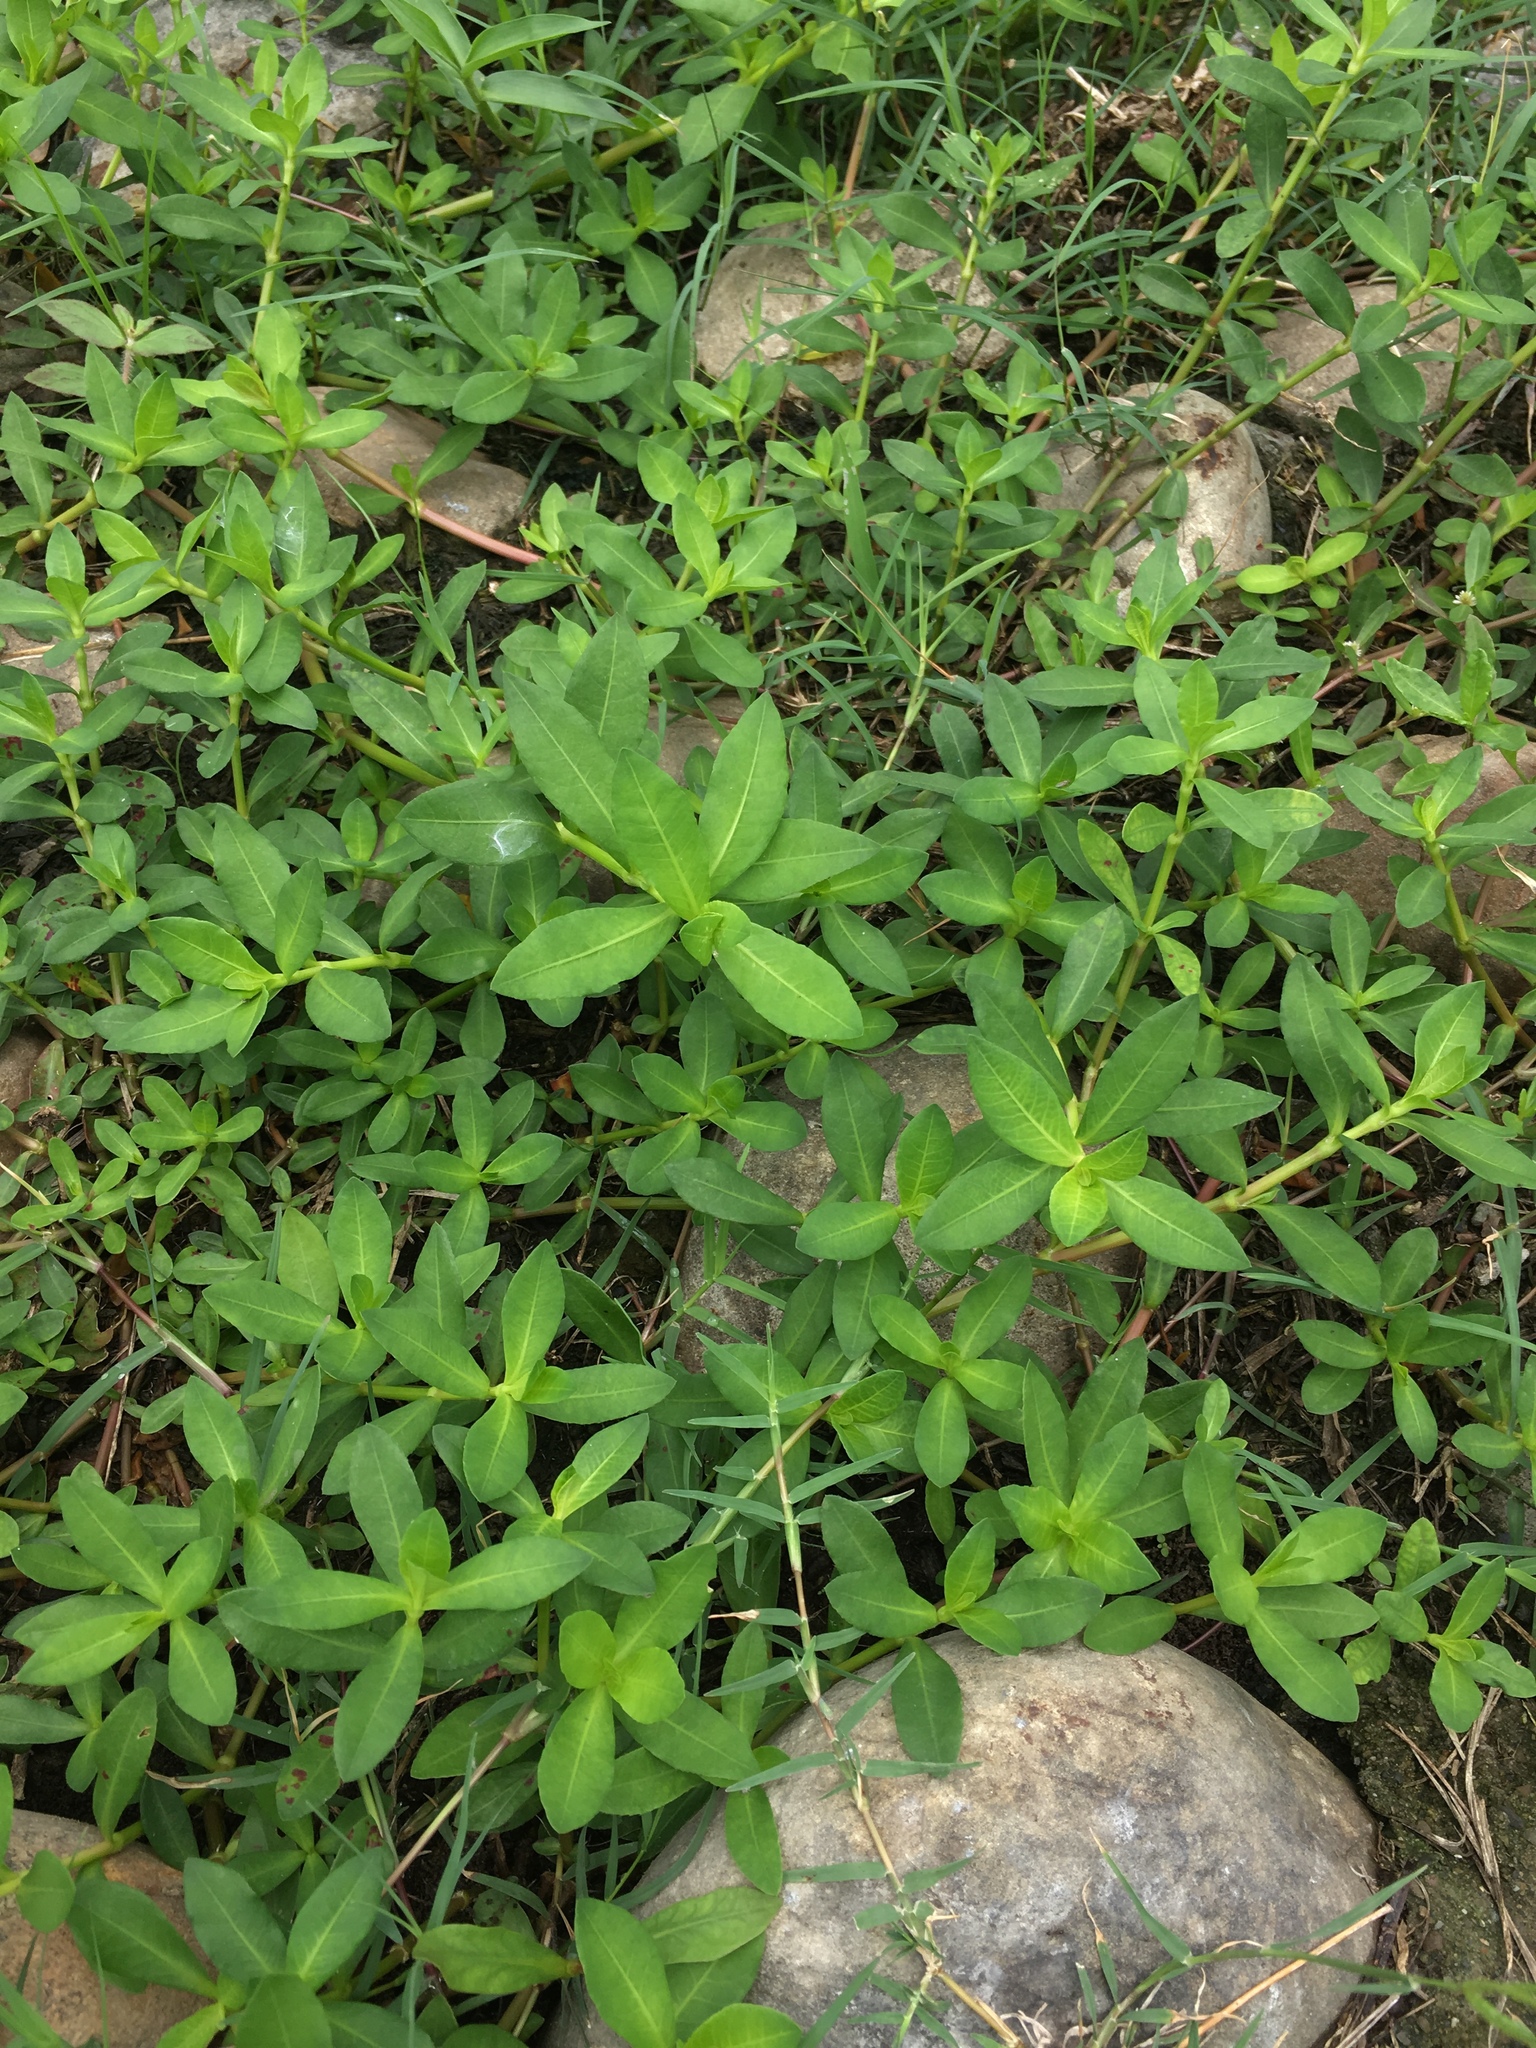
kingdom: Plantae
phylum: Tracheophyta
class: Magnoliopsida
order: Caryophyllales
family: Amaranthaceae
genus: Alternanthera
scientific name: Alternanthera philoxeroides
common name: Alligatorweed
